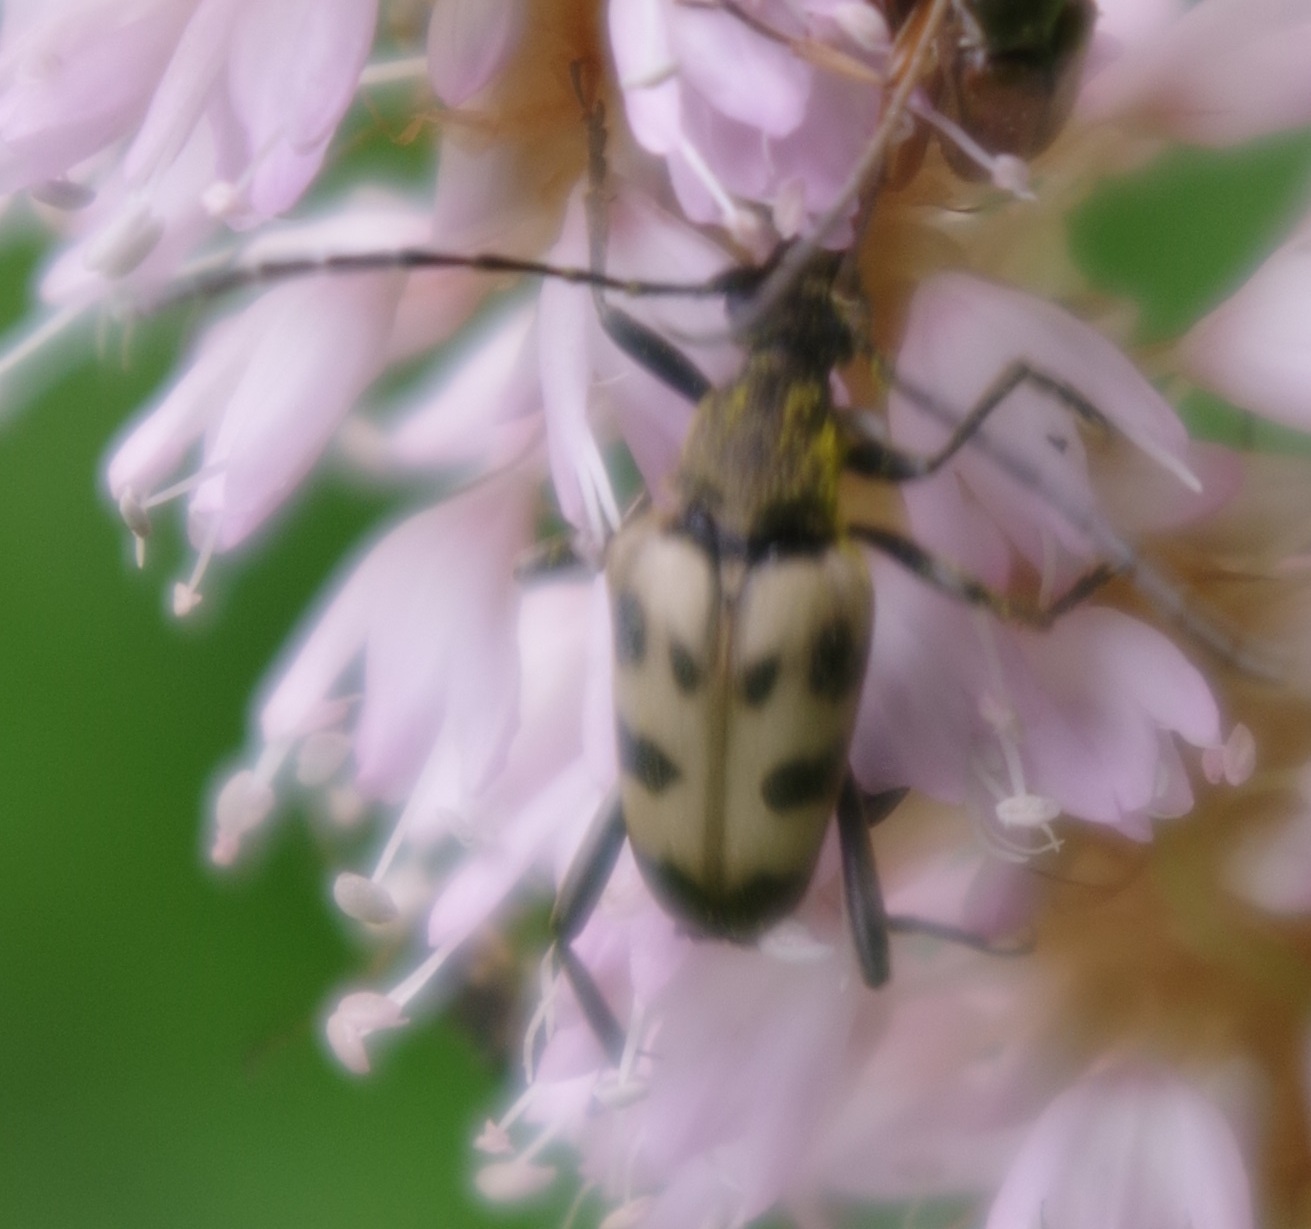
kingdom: Animalia
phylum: Arthropoda
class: Insecta
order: Coleoptera
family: Cerambycidae
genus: Pachytodes
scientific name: Pachytodes cerambyciformis
